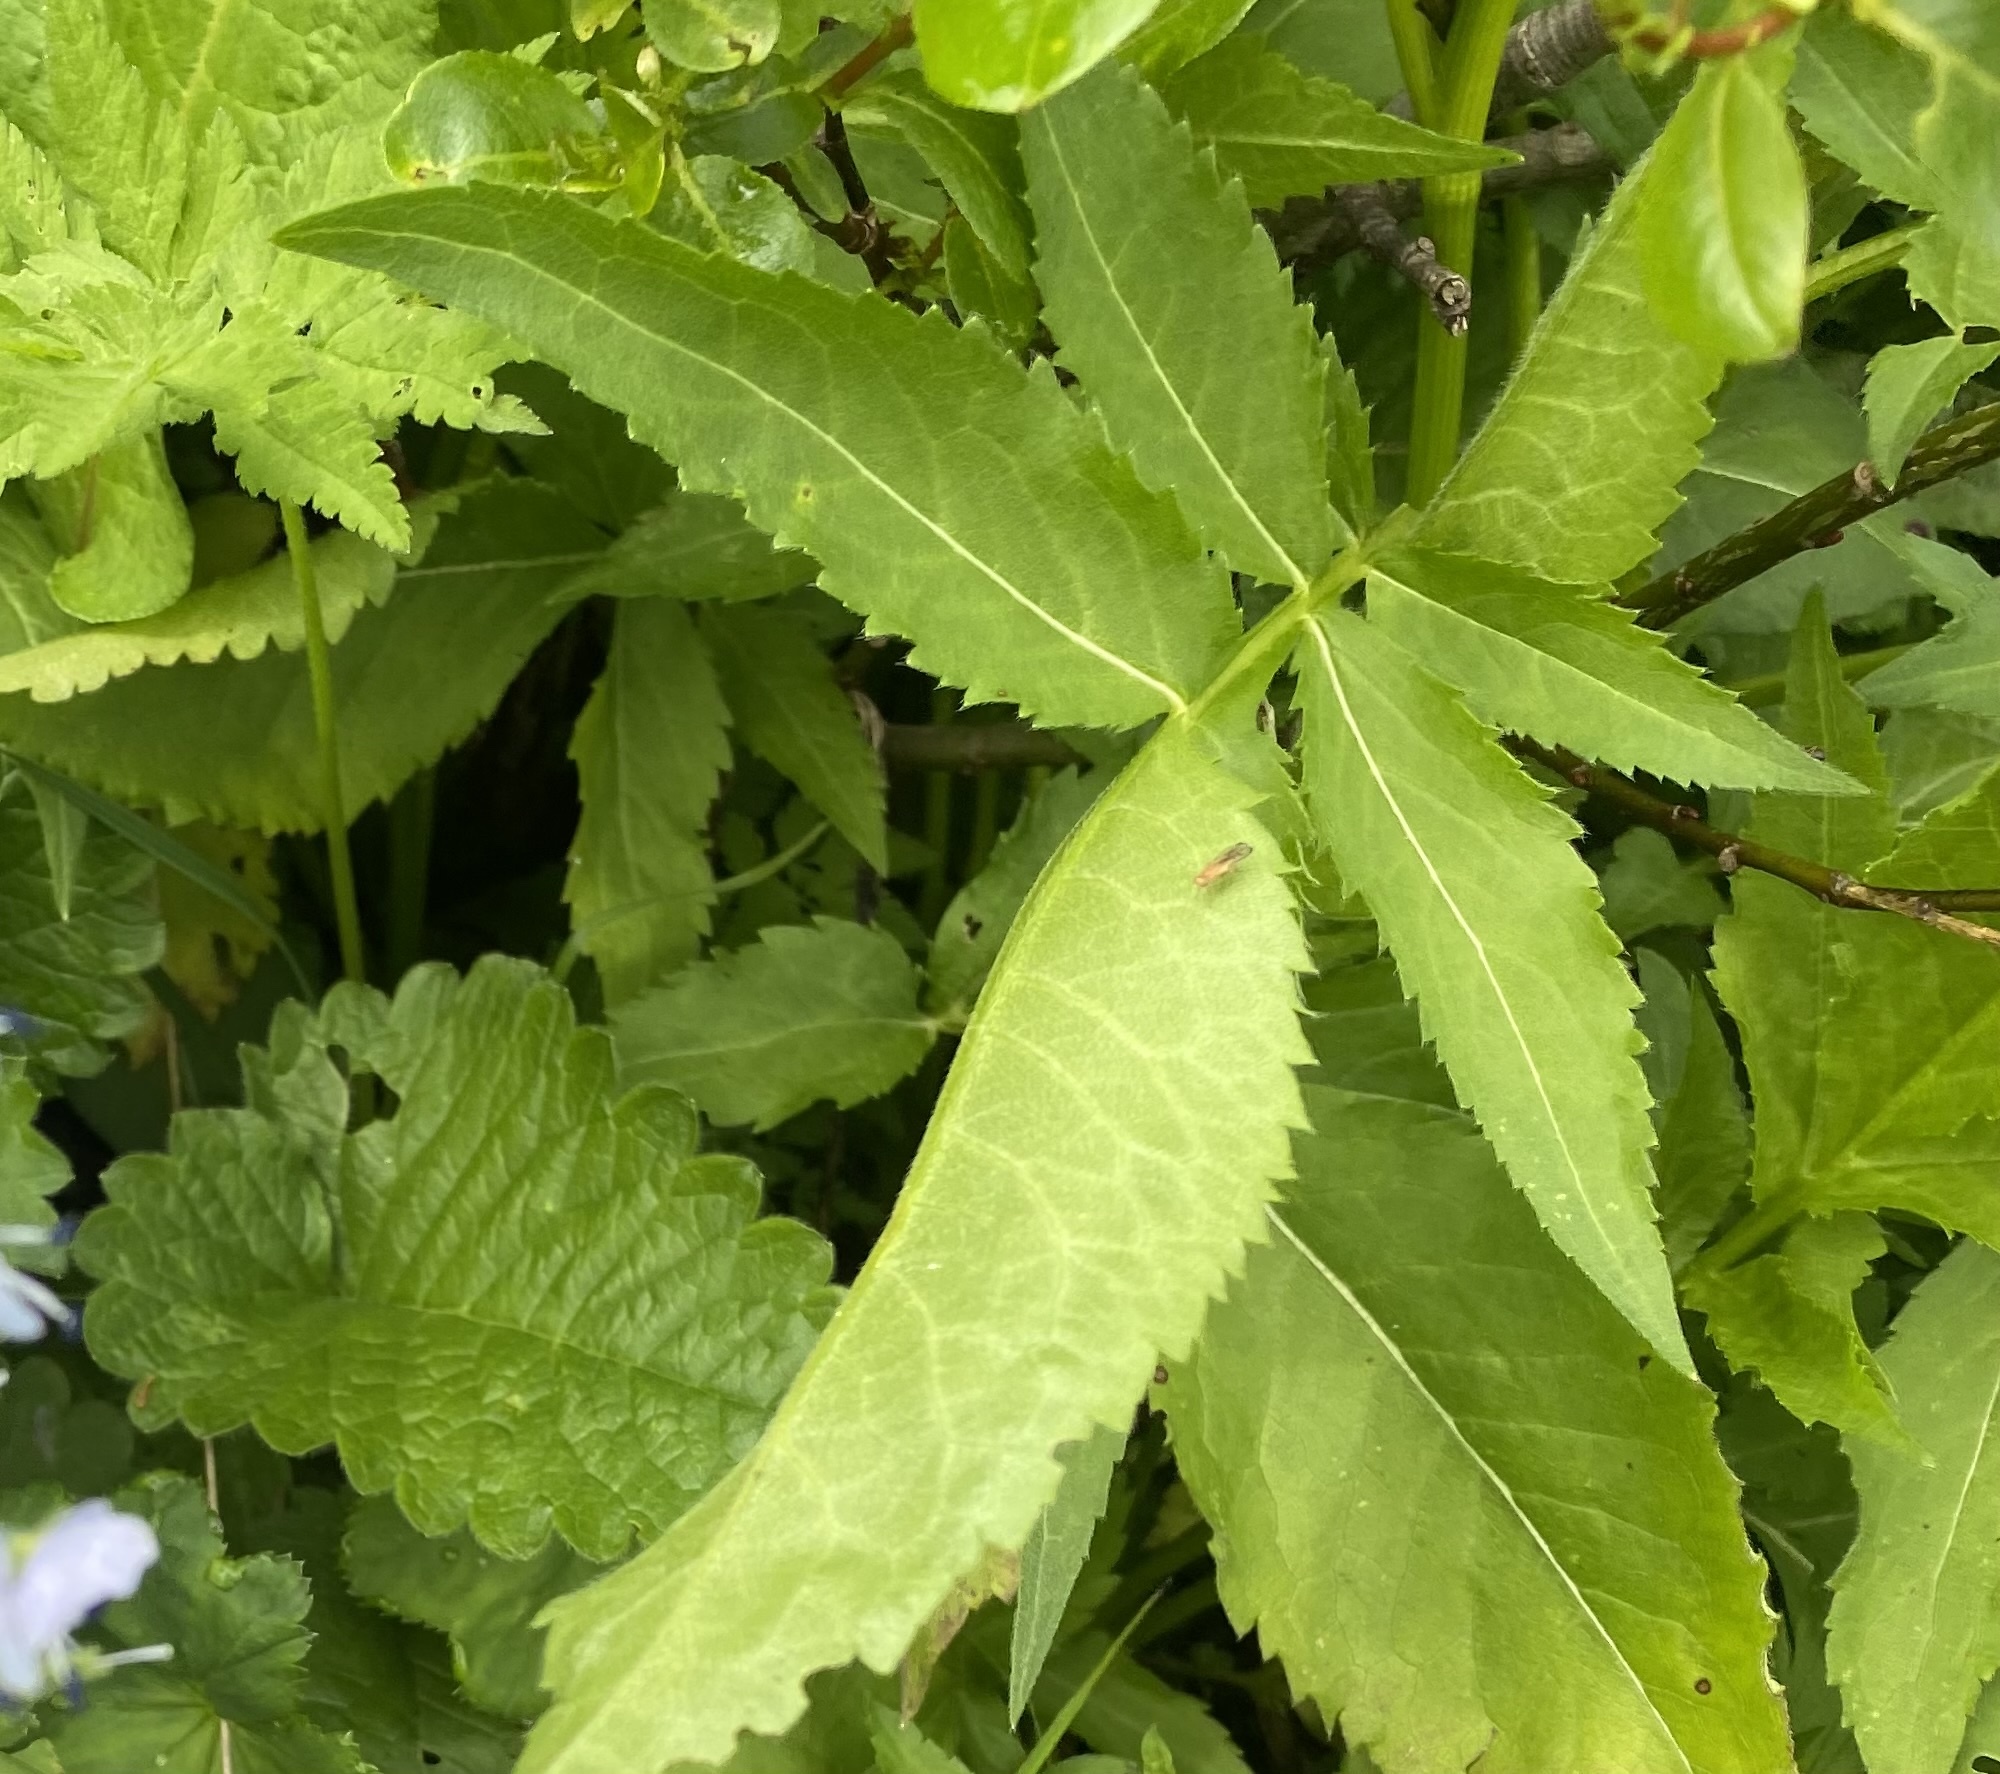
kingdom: Plantae
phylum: Tracheophyta
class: Magnoliopsida
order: Dipsacales
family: Caprifoliaceae
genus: Cephalaria
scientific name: Cephalaria gigantea
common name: Tatarian cephalaria
